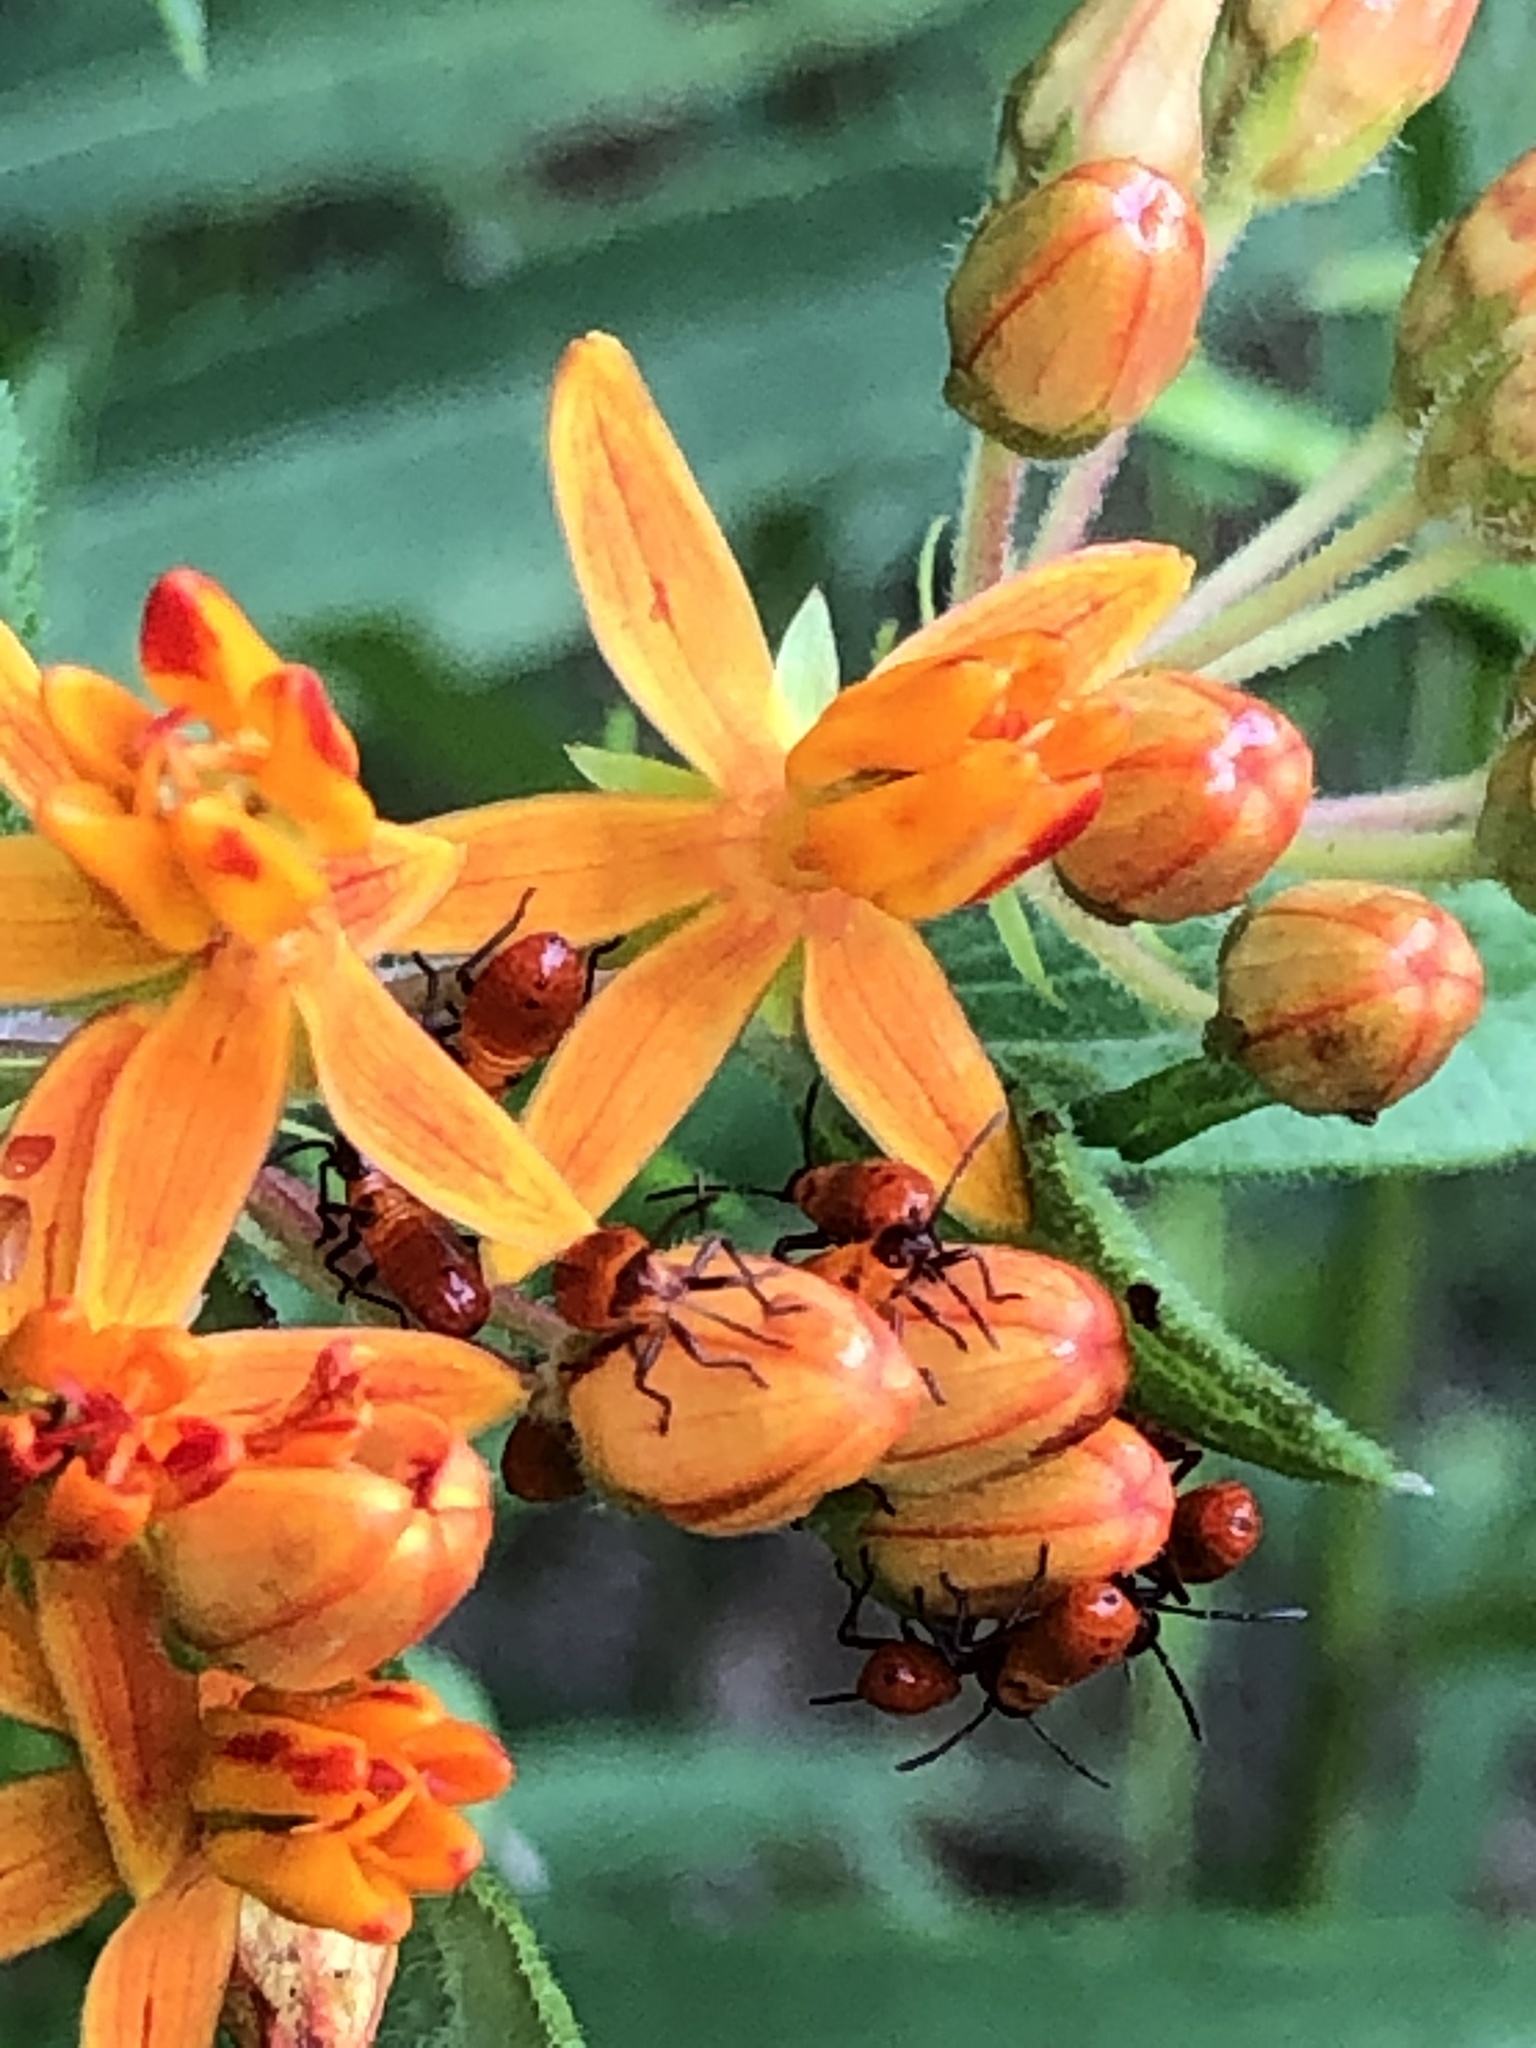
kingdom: Animalia
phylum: Arthropoda
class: Insecta
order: Hemiptera
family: Lygaeidae
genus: Oncopeltus
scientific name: Oncopeltus fasciatus
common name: Large milkweed bug
